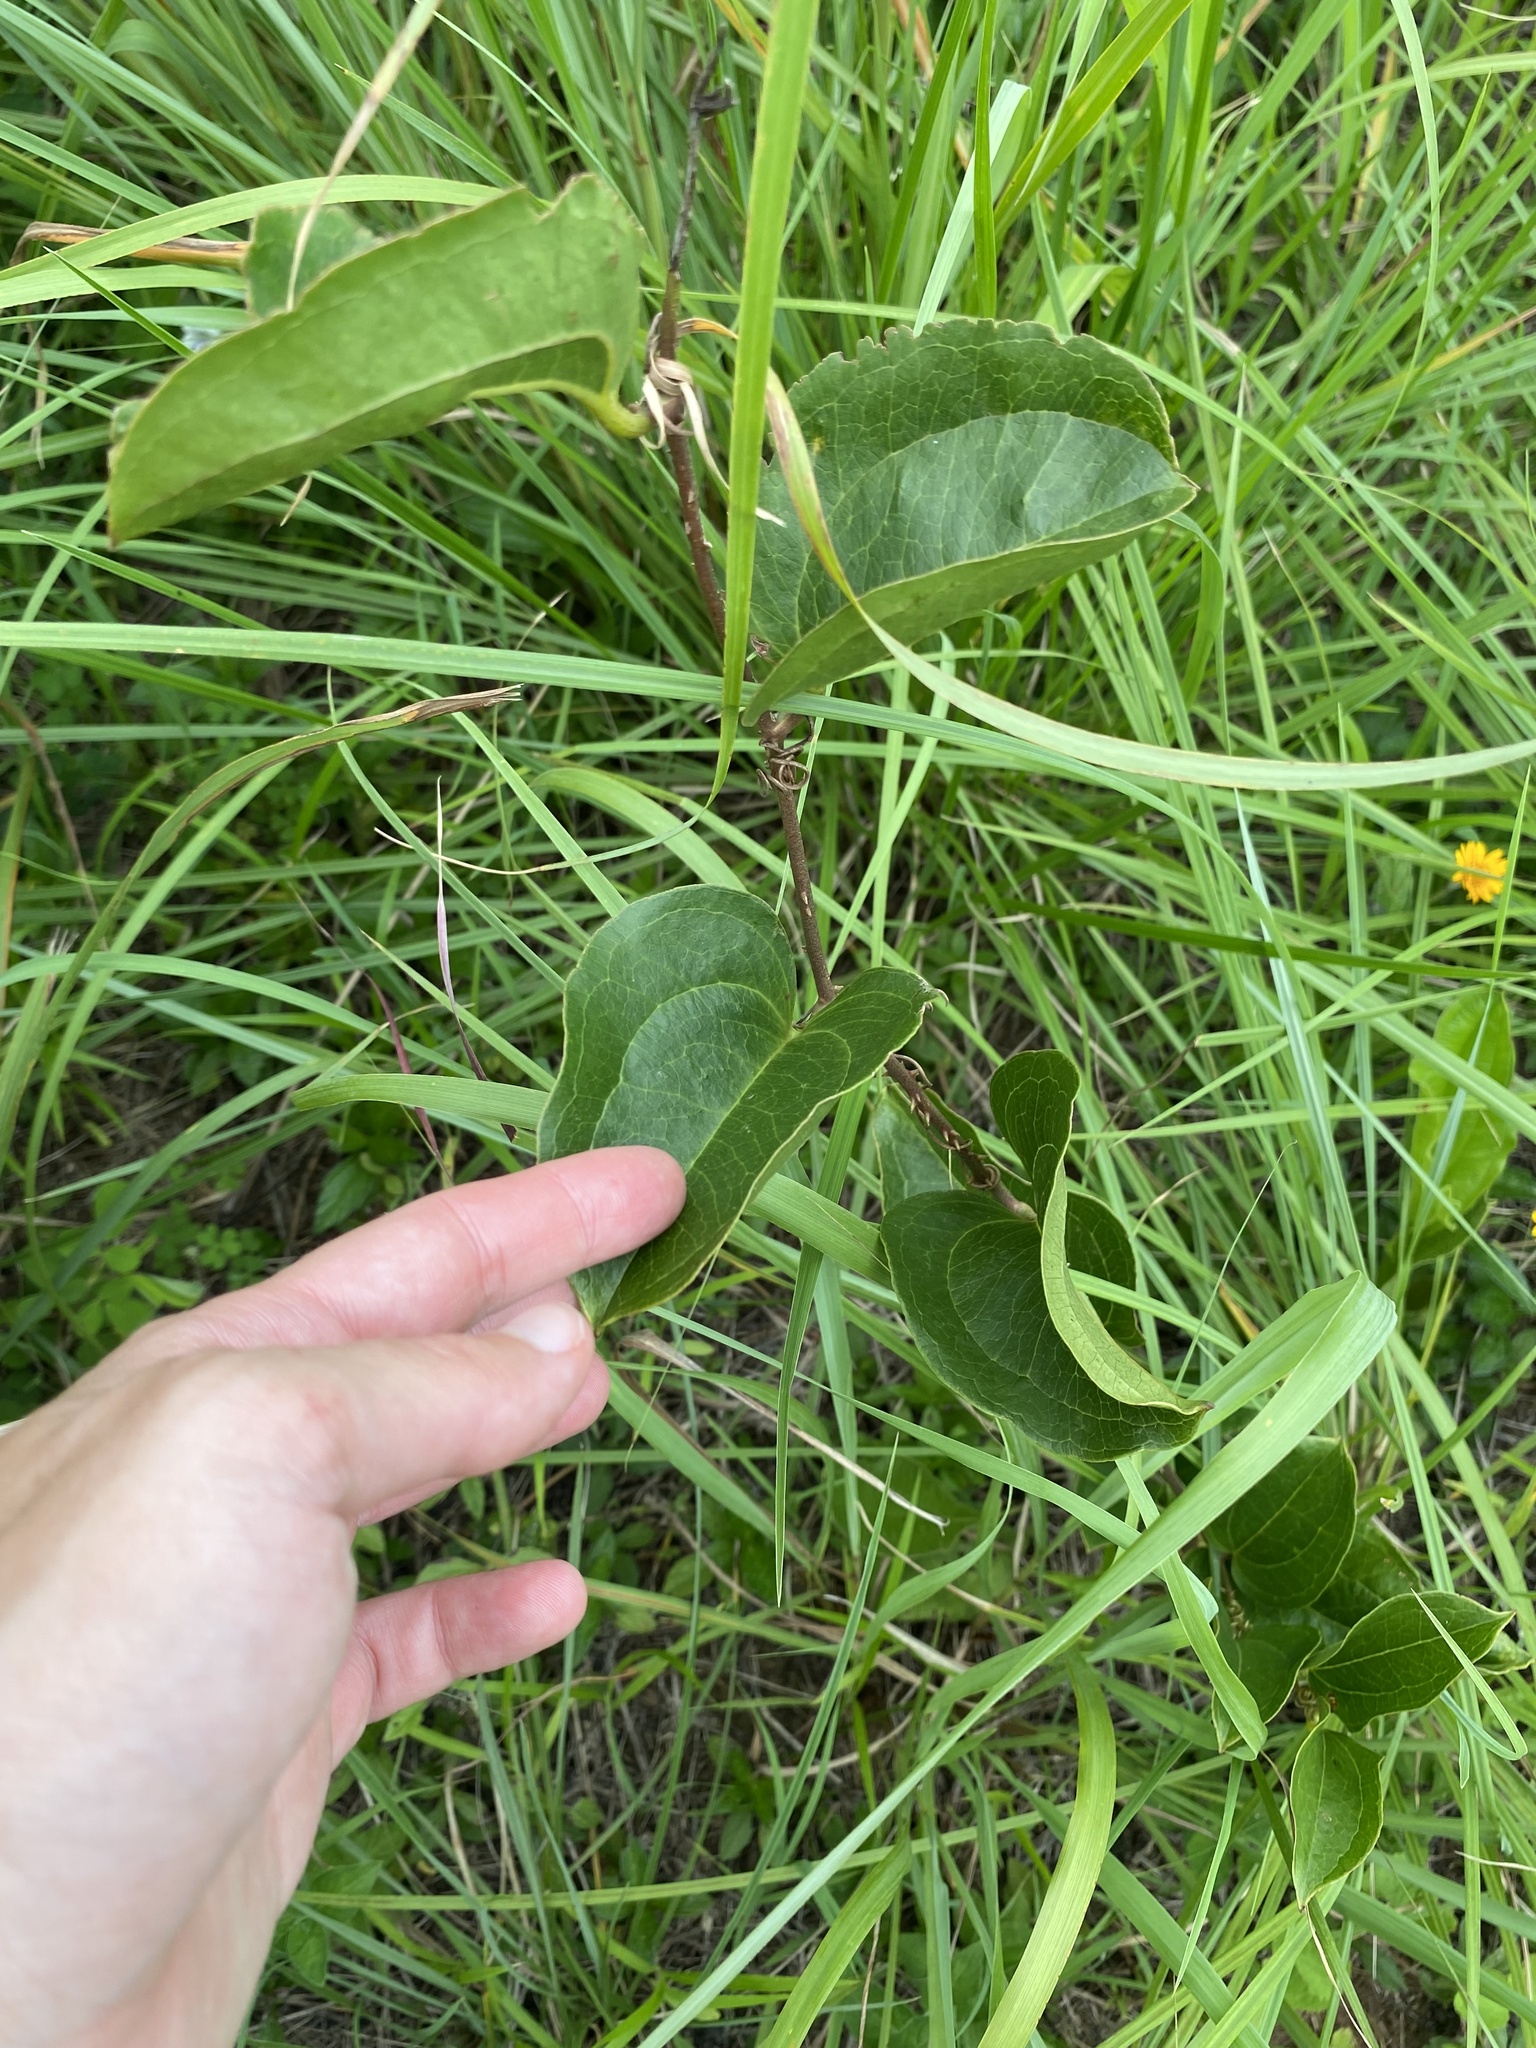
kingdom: Plantae
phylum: Tracheophyta
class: Liliopsida
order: Liliales
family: Smilacaceae
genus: Smilax
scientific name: Smilax anceps
